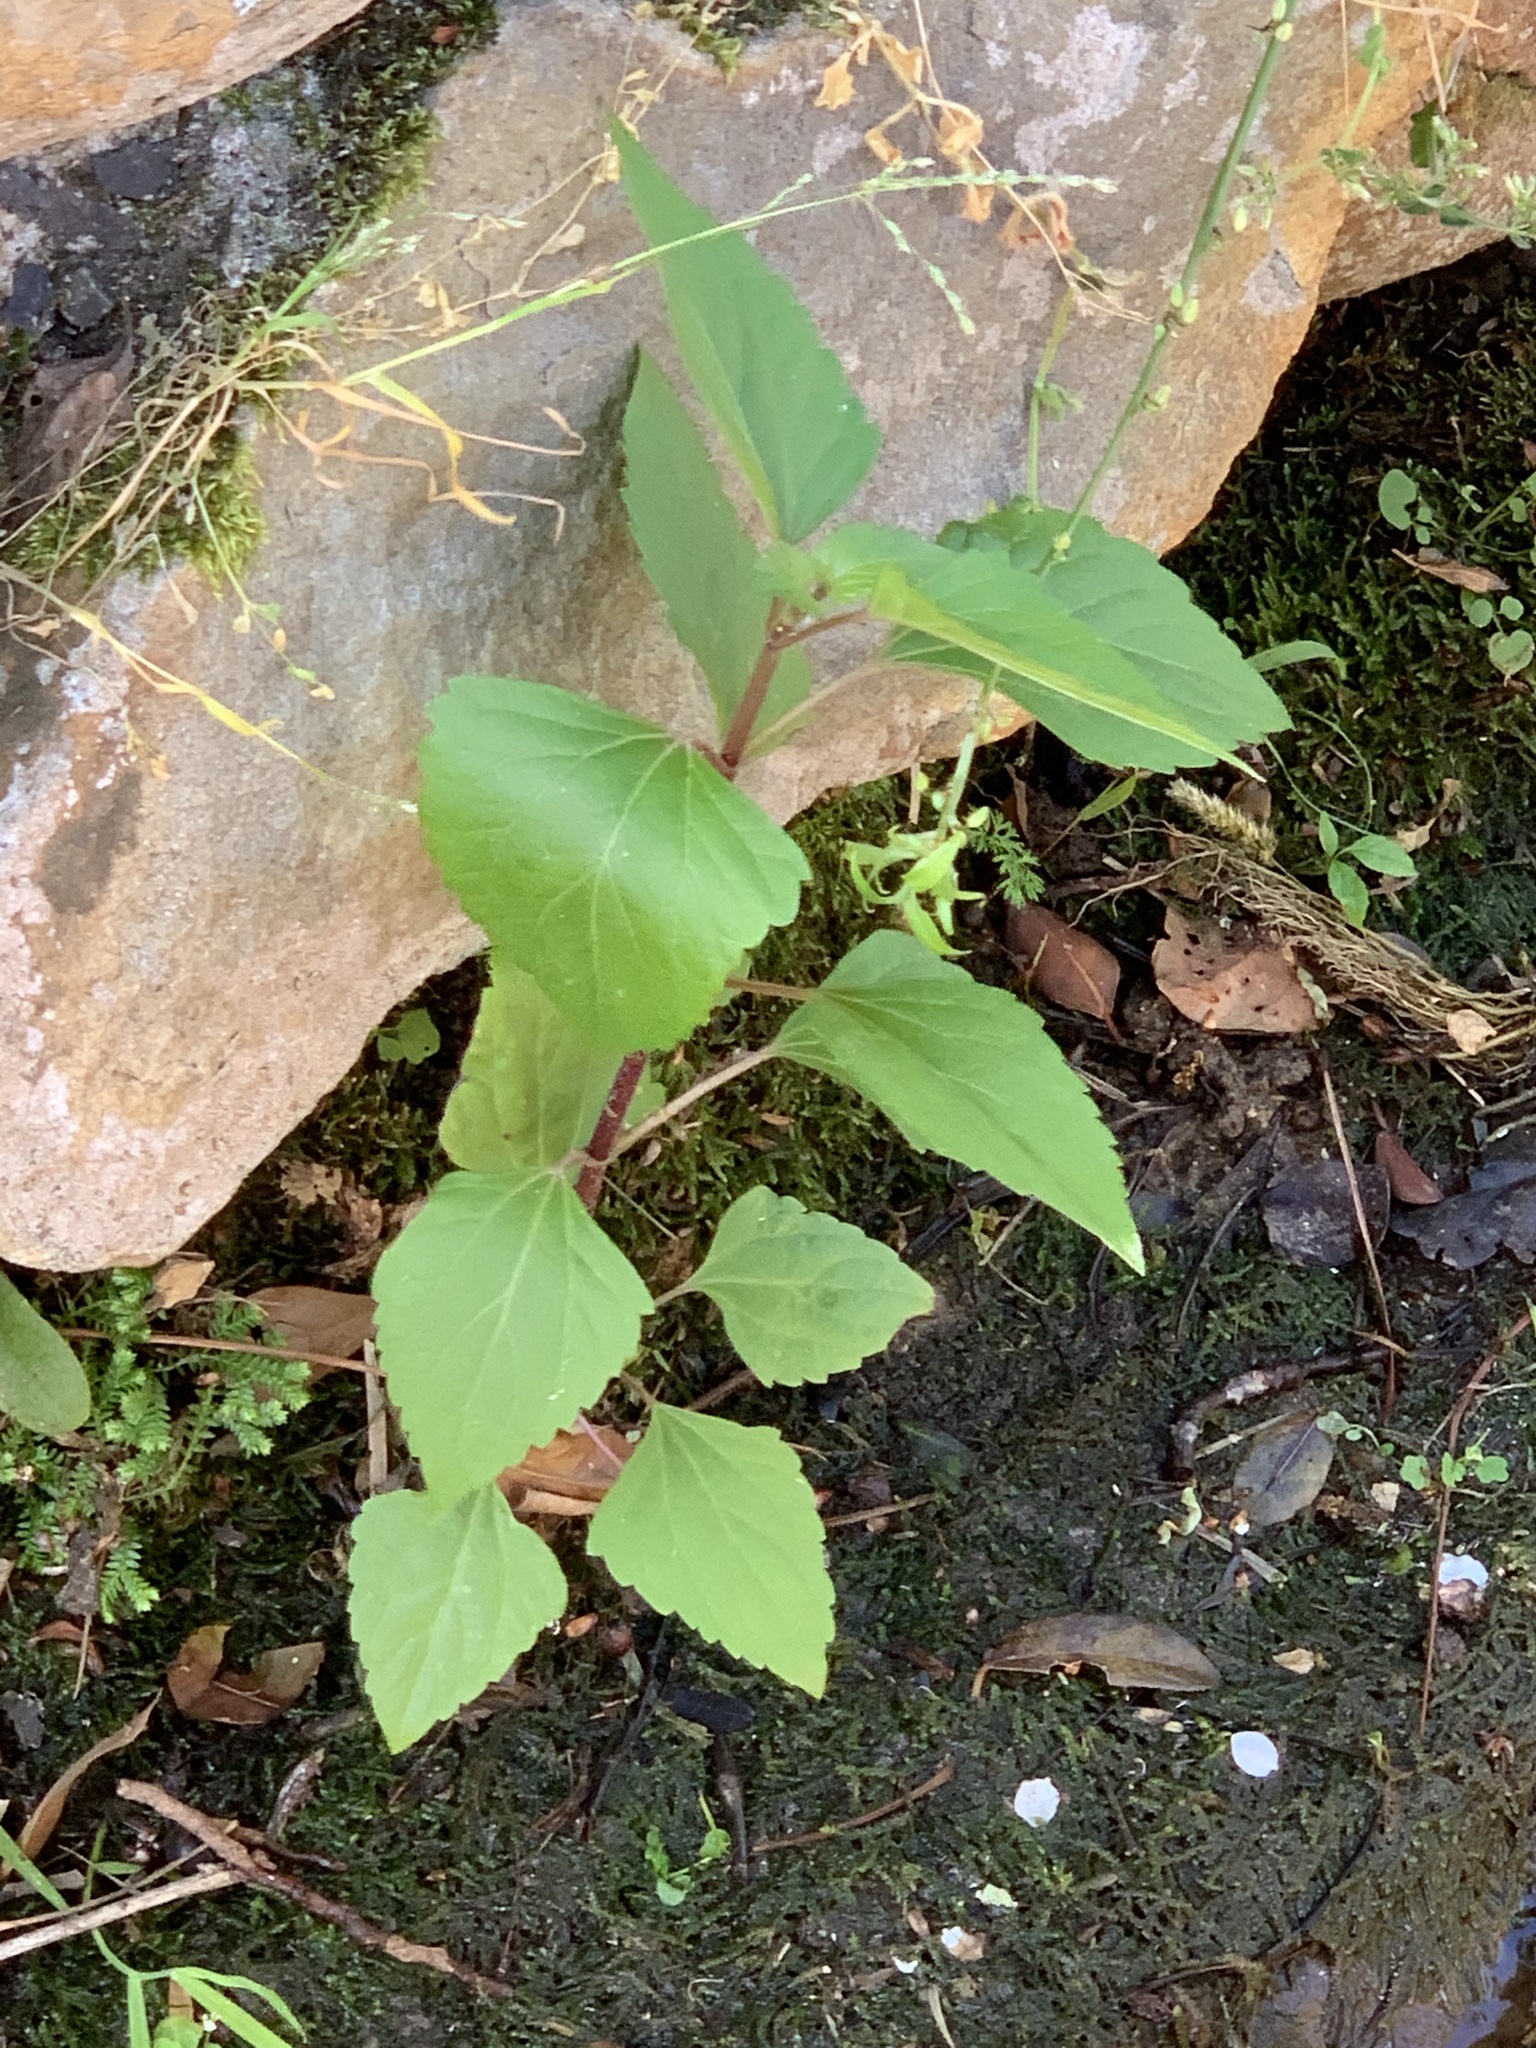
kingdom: Plantae
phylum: Tracheophyta
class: Magnoliopsida
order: Asterales
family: Asteraceae
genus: Ageratina
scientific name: Ageratina adenophora
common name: Sticky snakeroot
